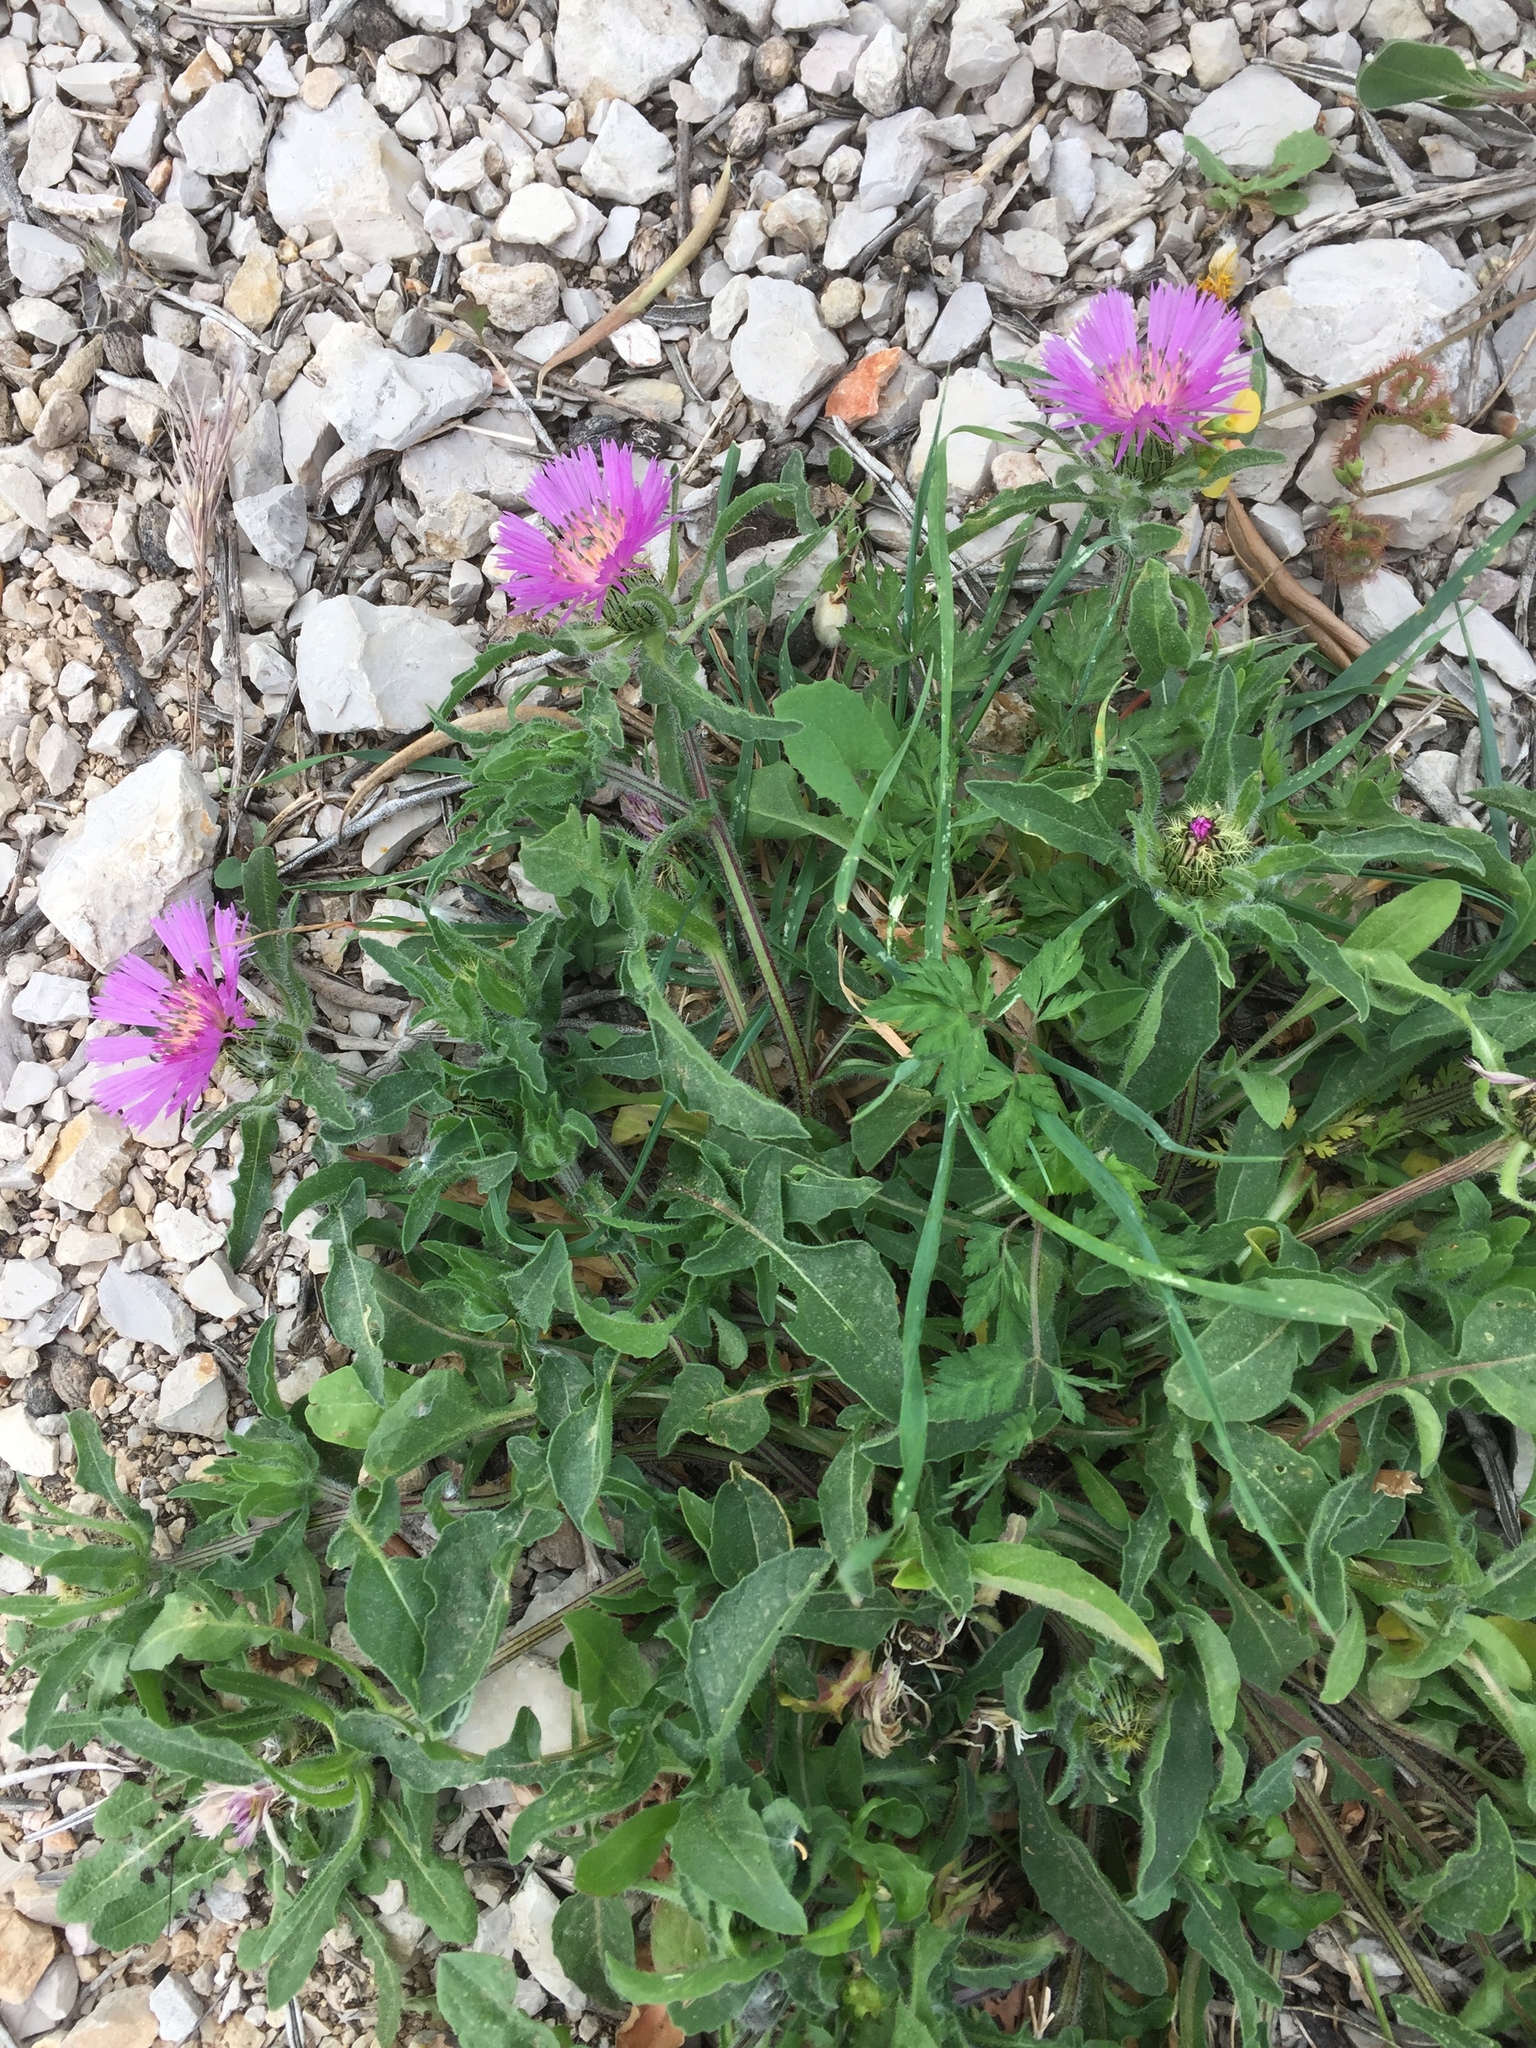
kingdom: Plantae
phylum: Tracheophyta
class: Magnoliopsida
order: Asterales
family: Asteraceae
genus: Centaurea
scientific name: Centaurea pullata
